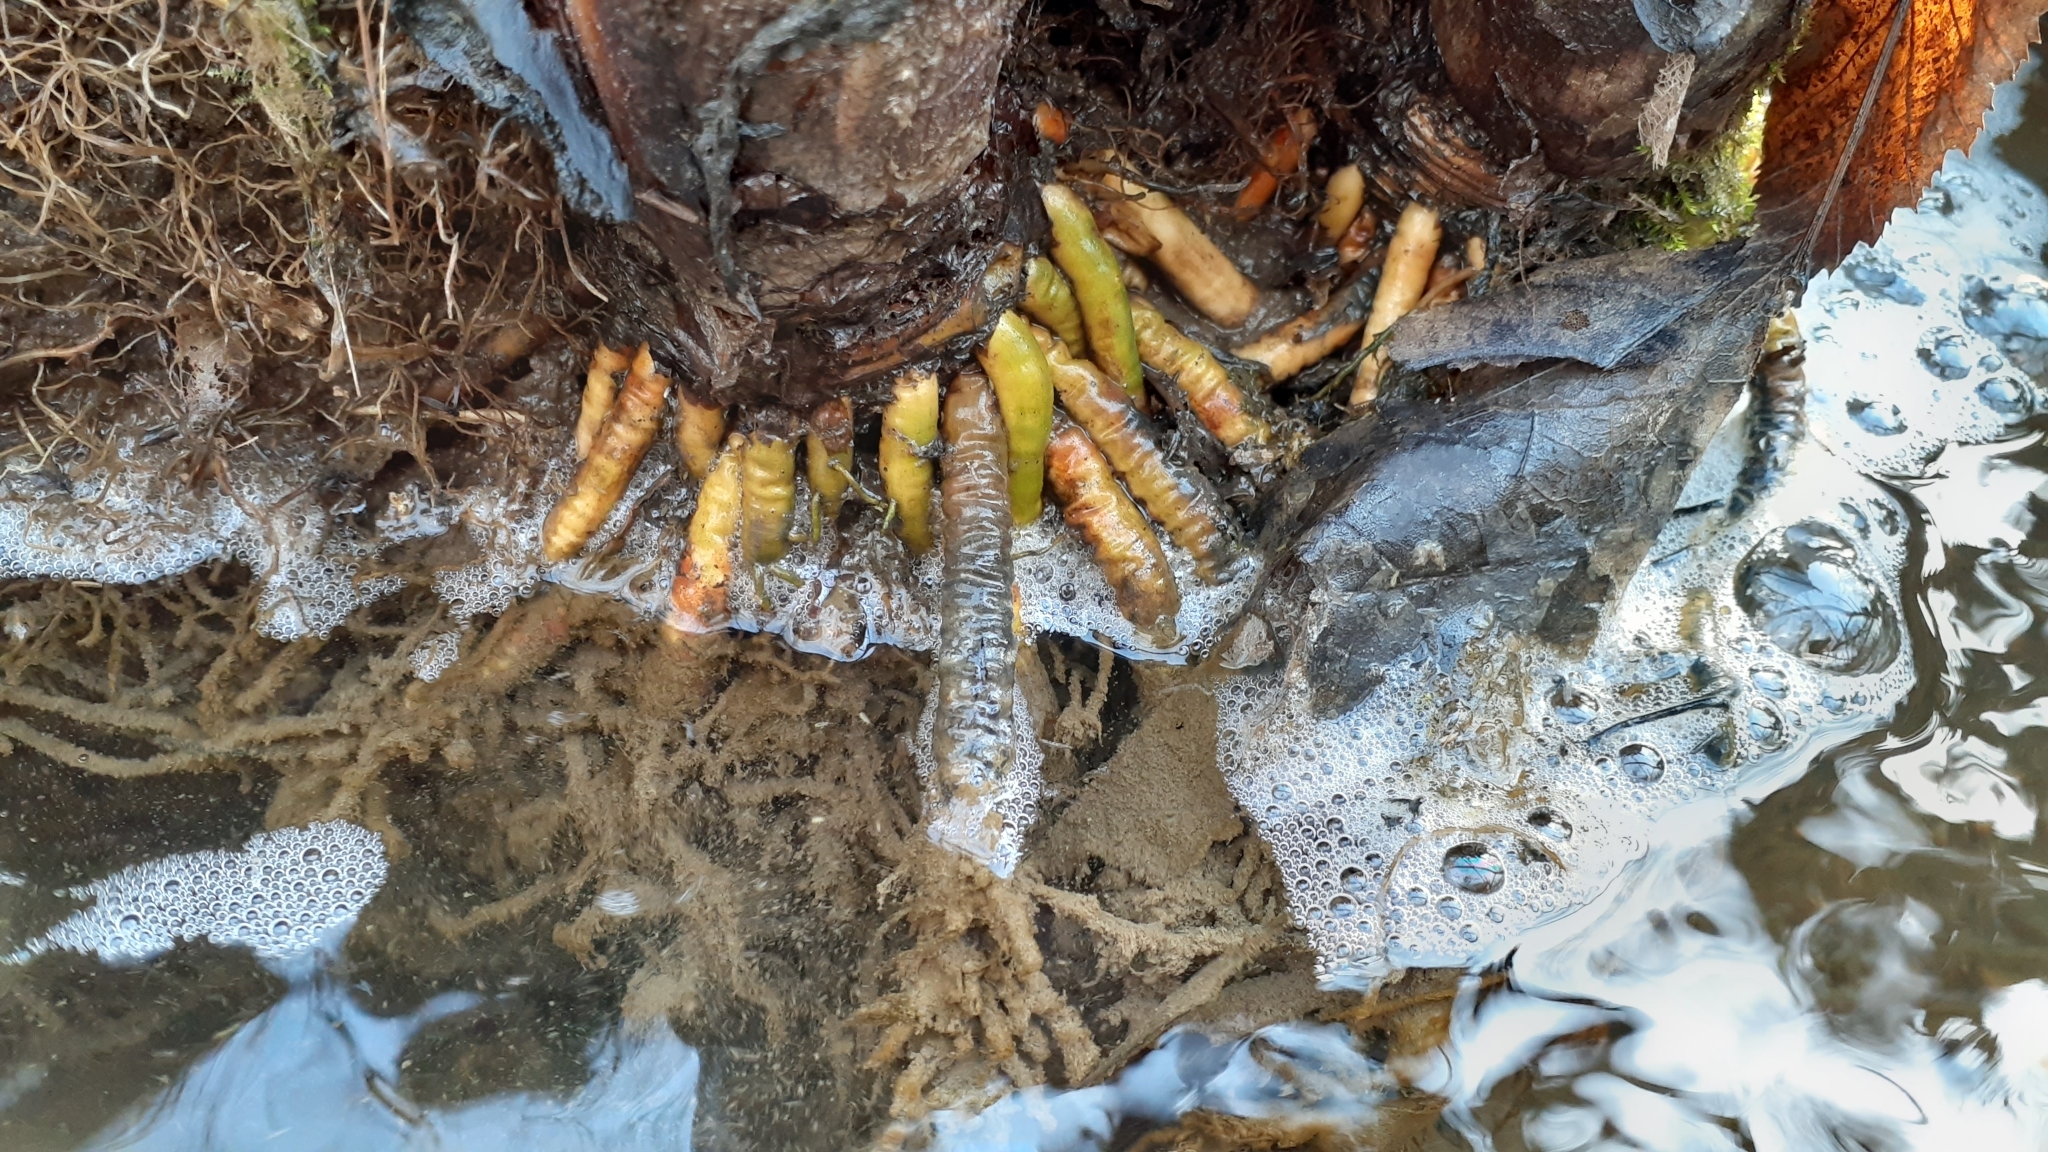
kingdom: Plantae
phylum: Tracheophyta
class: Liliopsida
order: Alismatales
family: Araceae
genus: Symplocarpus
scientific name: Symplocarpus foetidus
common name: Eastern skunk cabbage
